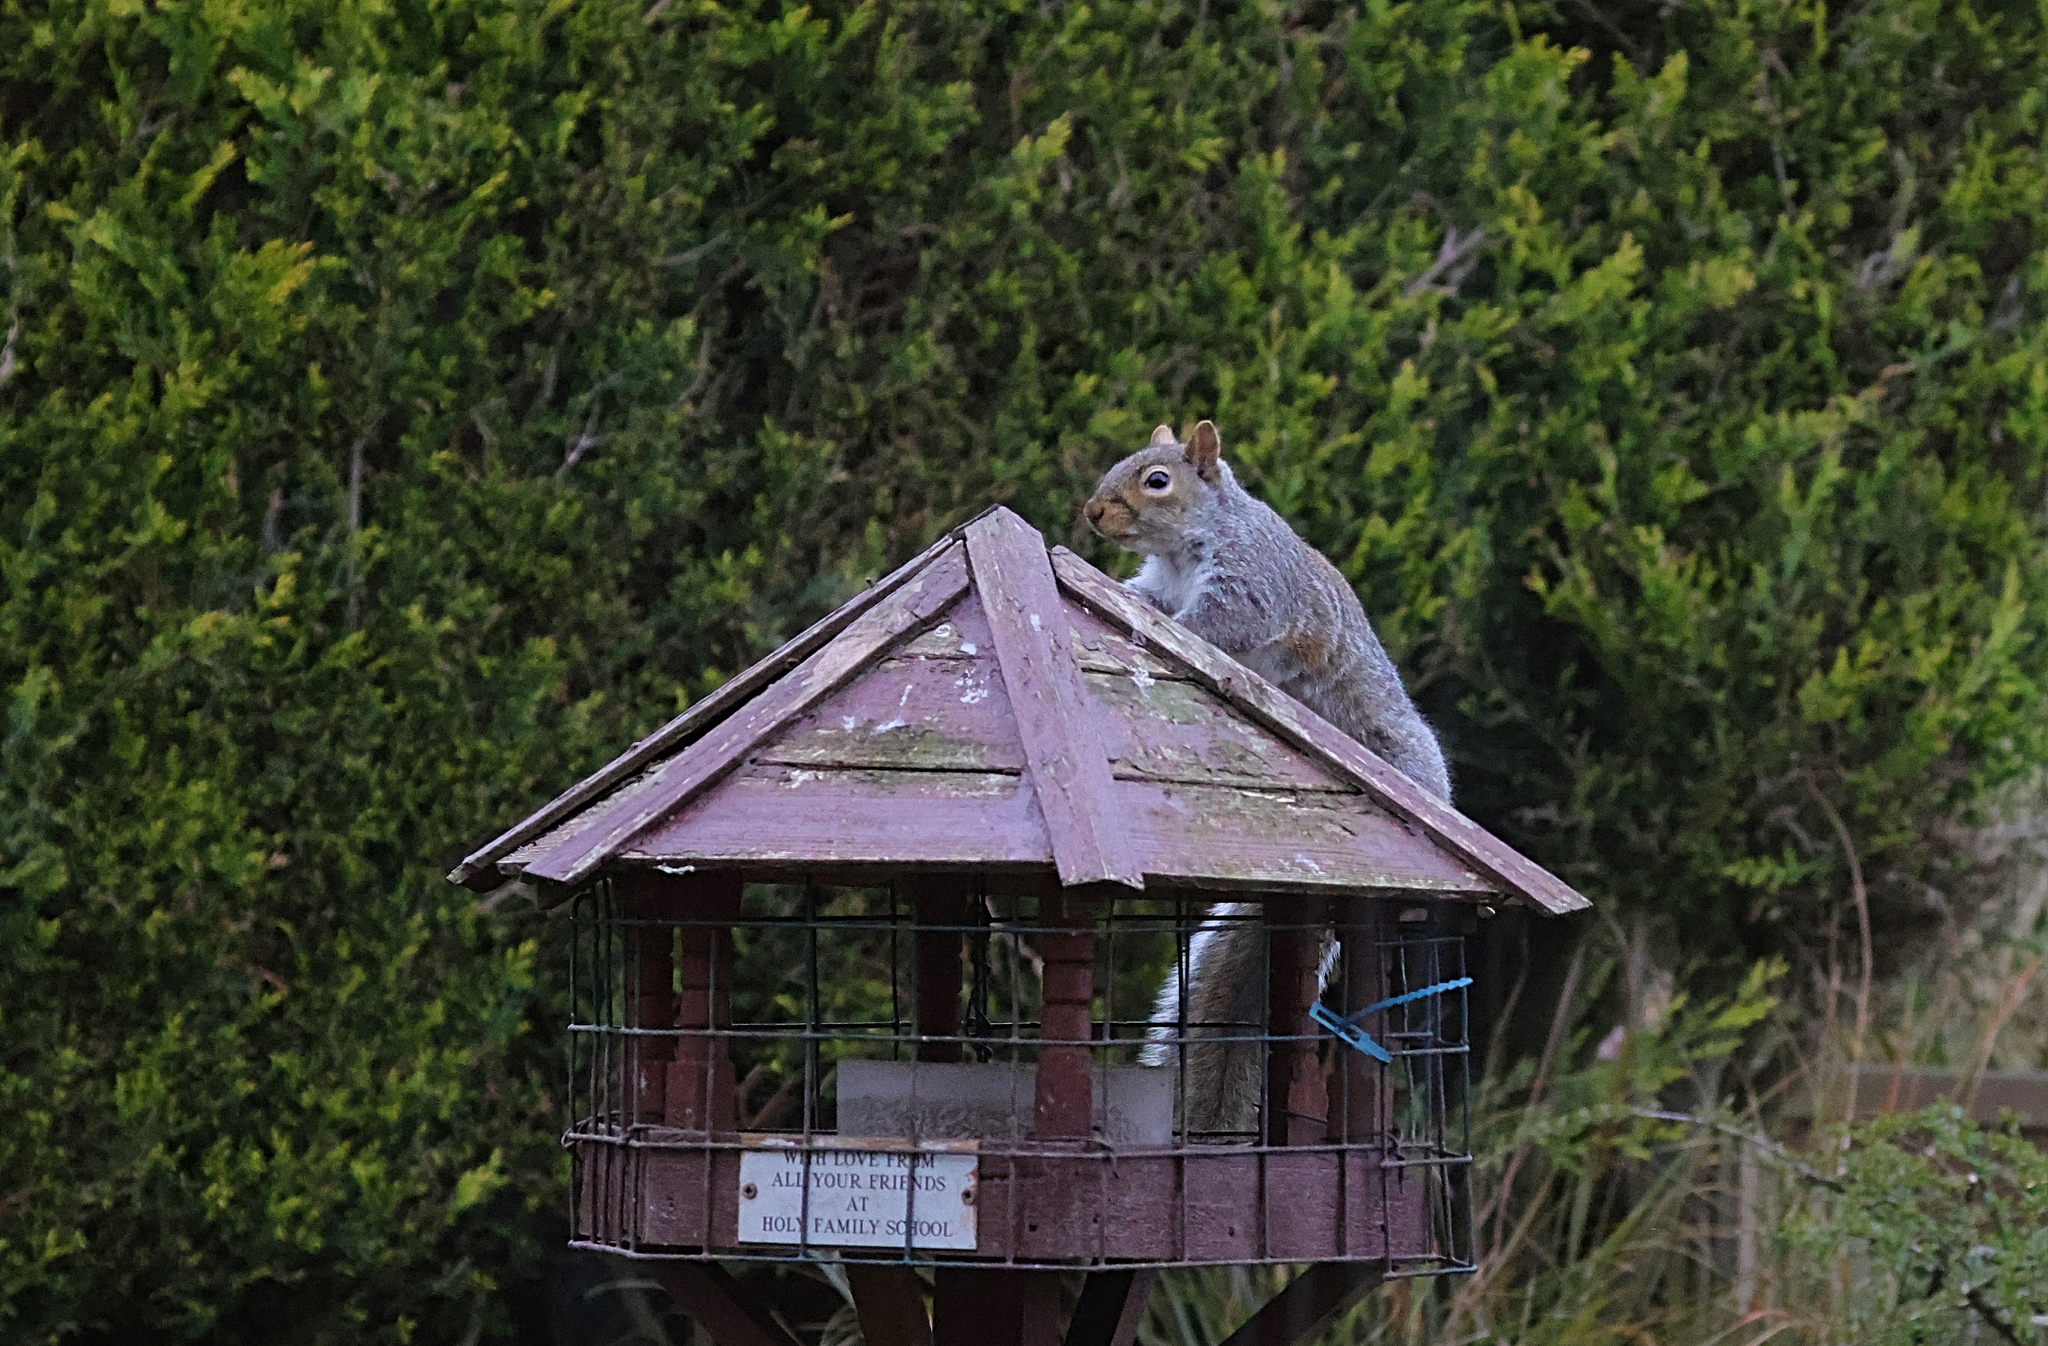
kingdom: Animalia
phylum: Chordata
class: Mammalia
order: Rodentia
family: Sciuridae
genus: Sciurus
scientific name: Sciurus carolinensis
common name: Eastern gray squirrel
